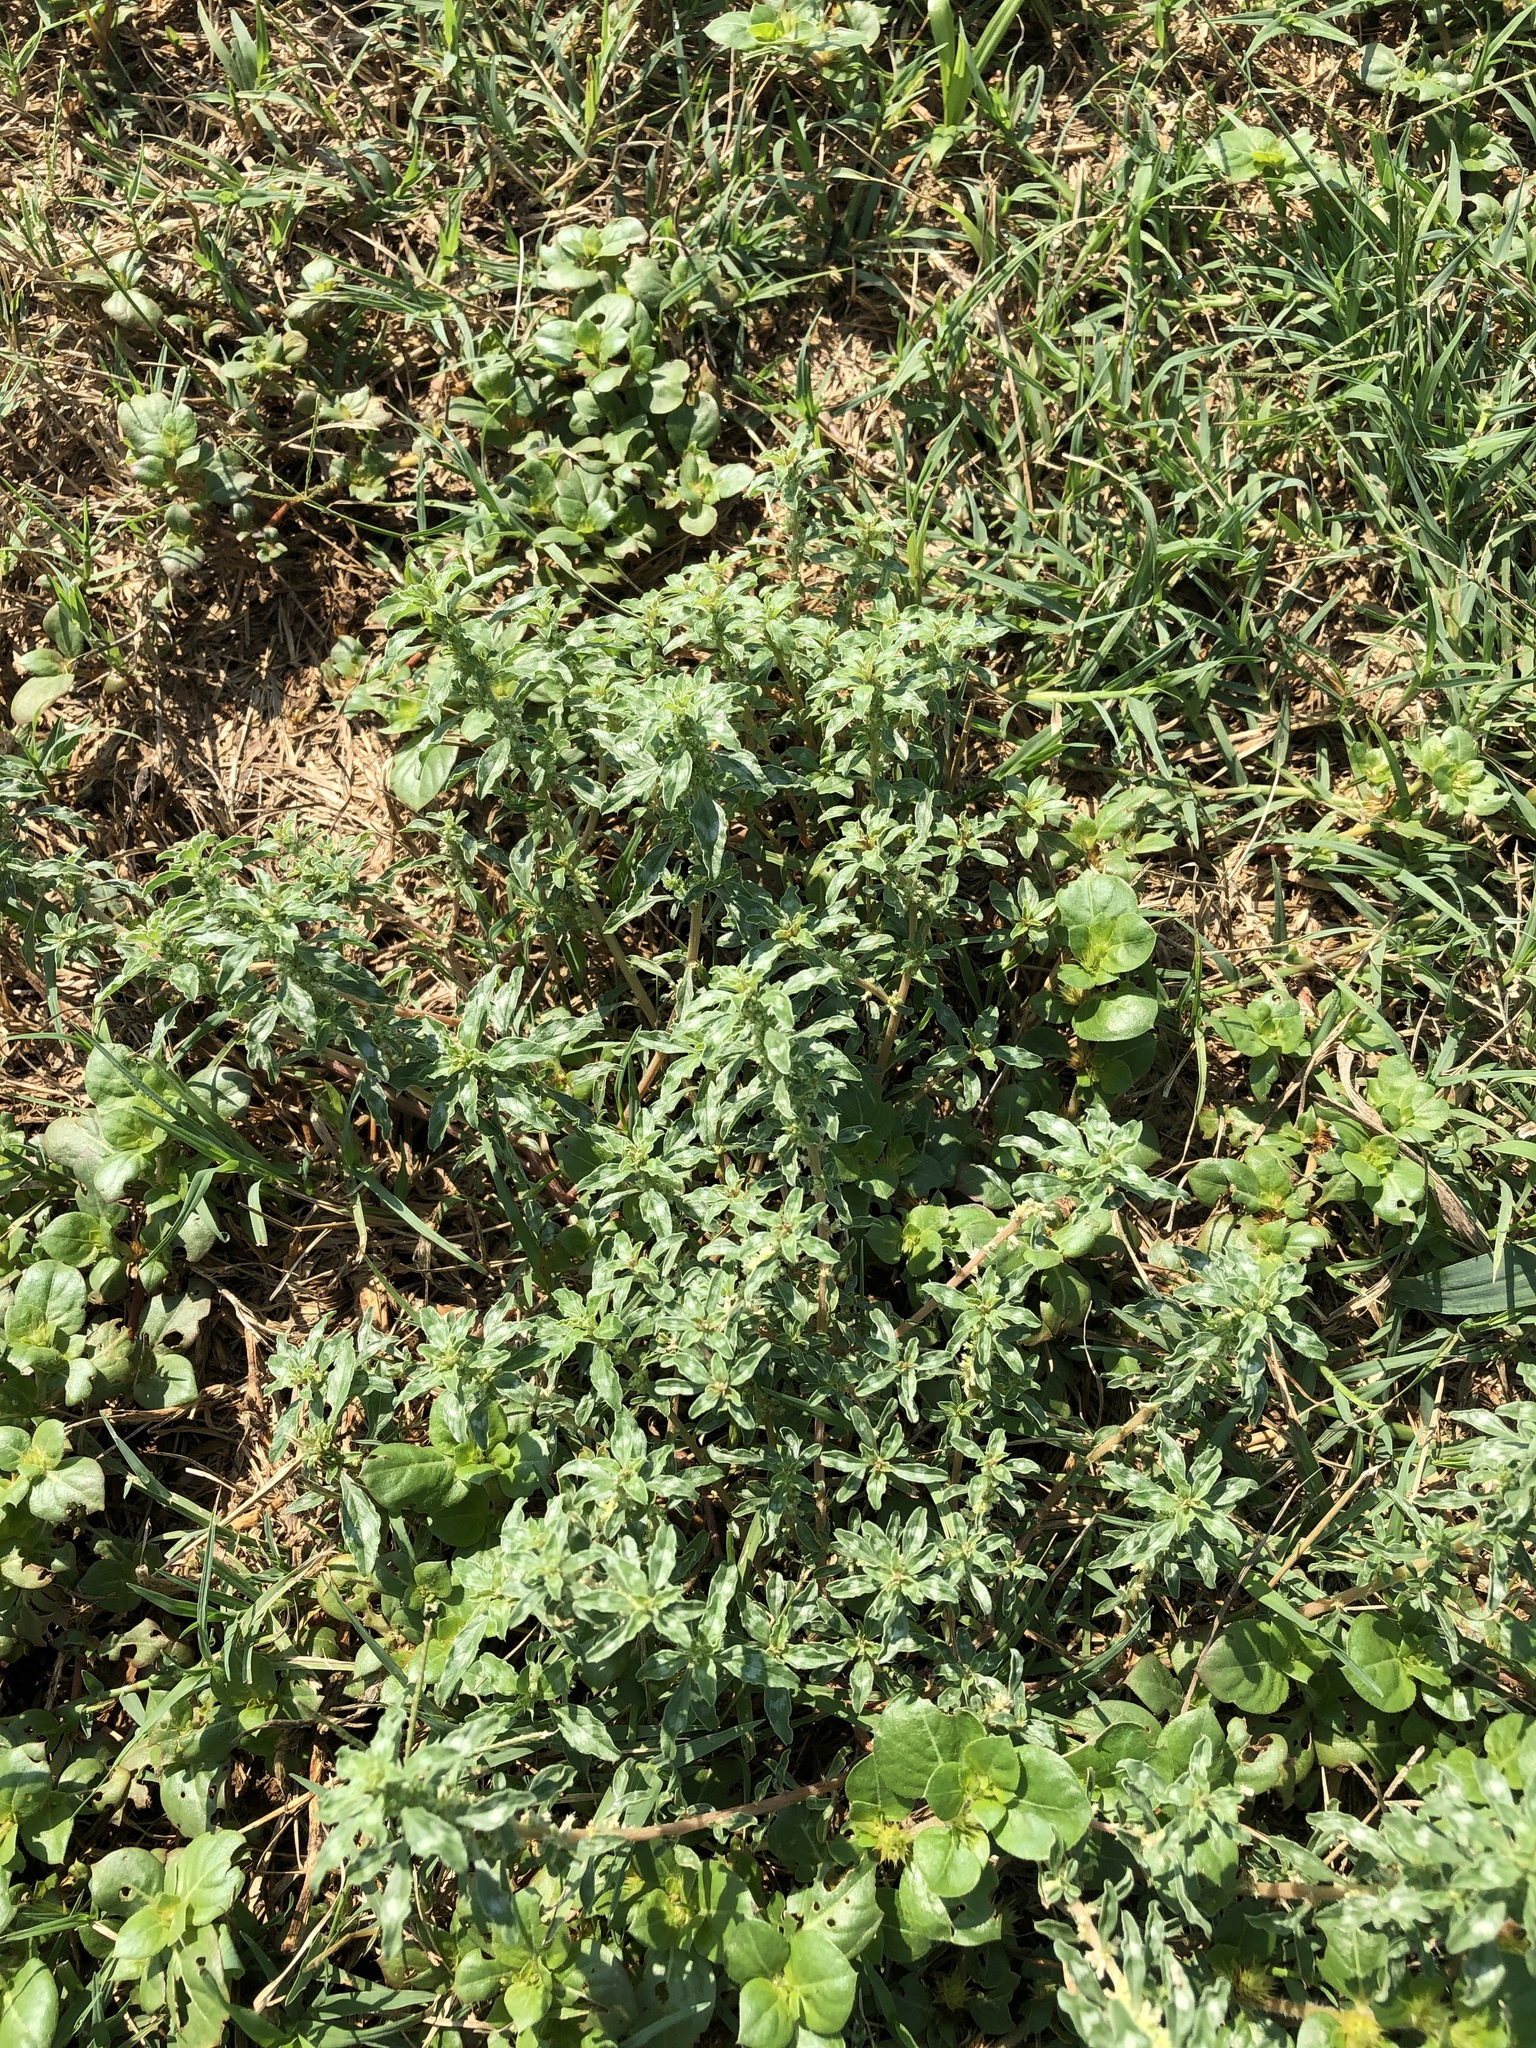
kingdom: Plantae
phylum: Tracheophyta
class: Magnoliopsida
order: Caryophyllales
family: Amaranthaceae
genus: Amaranthus
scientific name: Amaranthus blitoides
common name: Prostrate pigweed
